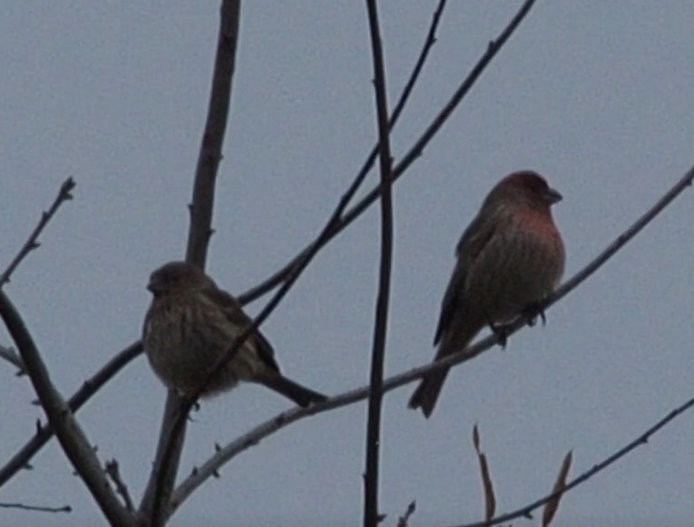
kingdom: Animalia
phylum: Chordata
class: Aves
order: Passeriformes
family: Fringillidae
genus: Haemorhous
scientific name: Haemorhous mexicanus
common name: House finch
